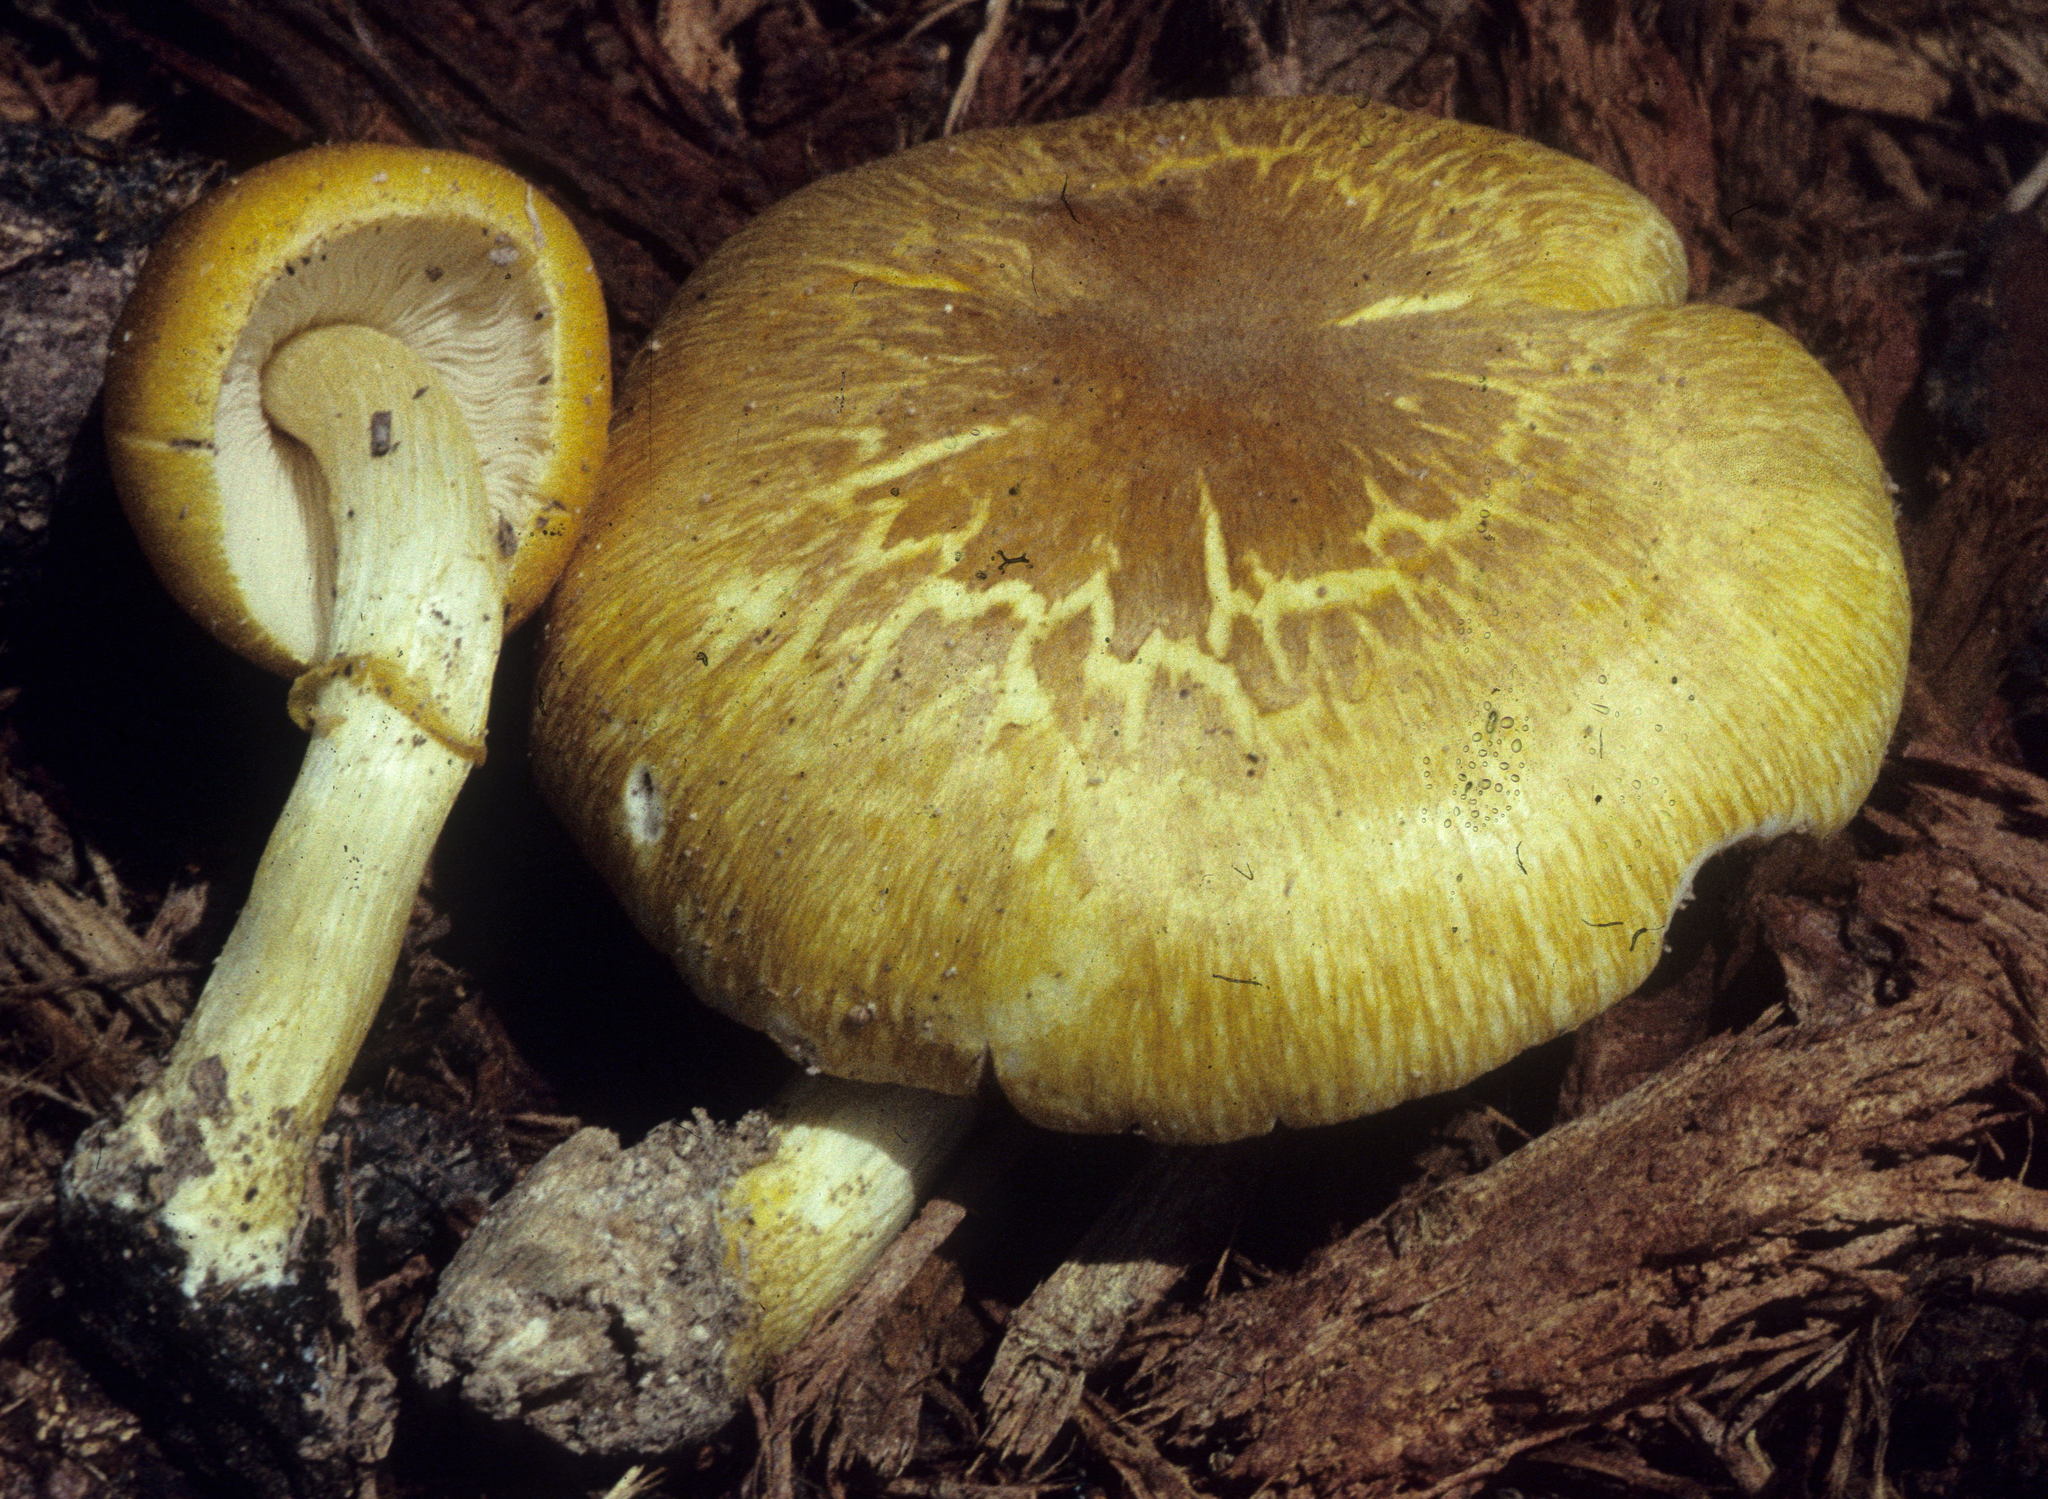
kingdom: Fungi
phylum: Basidiomycota
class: Agaricomycetes
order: Agaricales
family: Pluteaceae
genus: Pluteus
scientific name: Pluteus mammillatus
